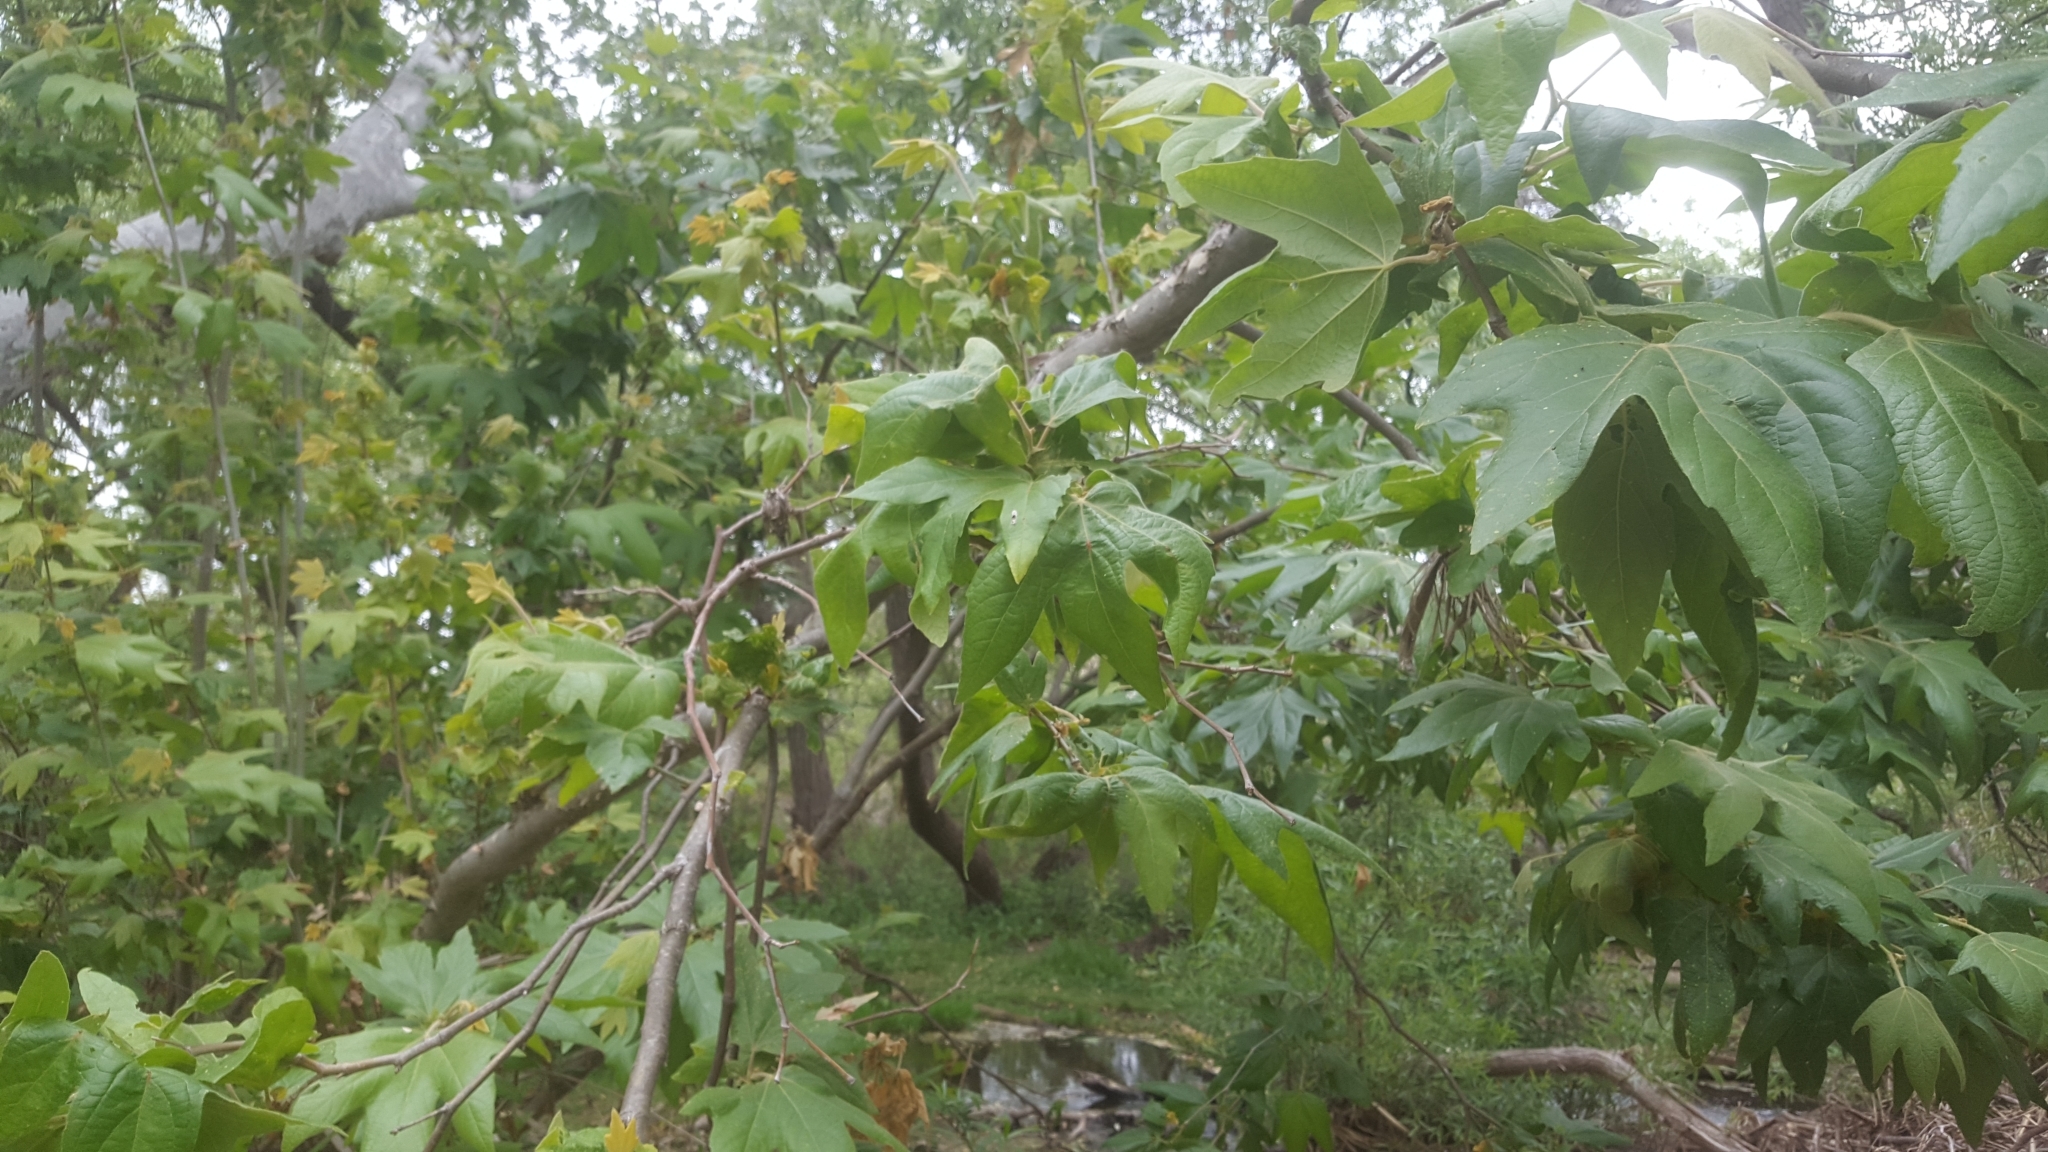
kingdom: Plantae
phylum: Tracheophyta
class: Magnoliopsida
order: Proteales
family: Platanaceae
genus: Platanus
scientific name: Platanus racemosa
